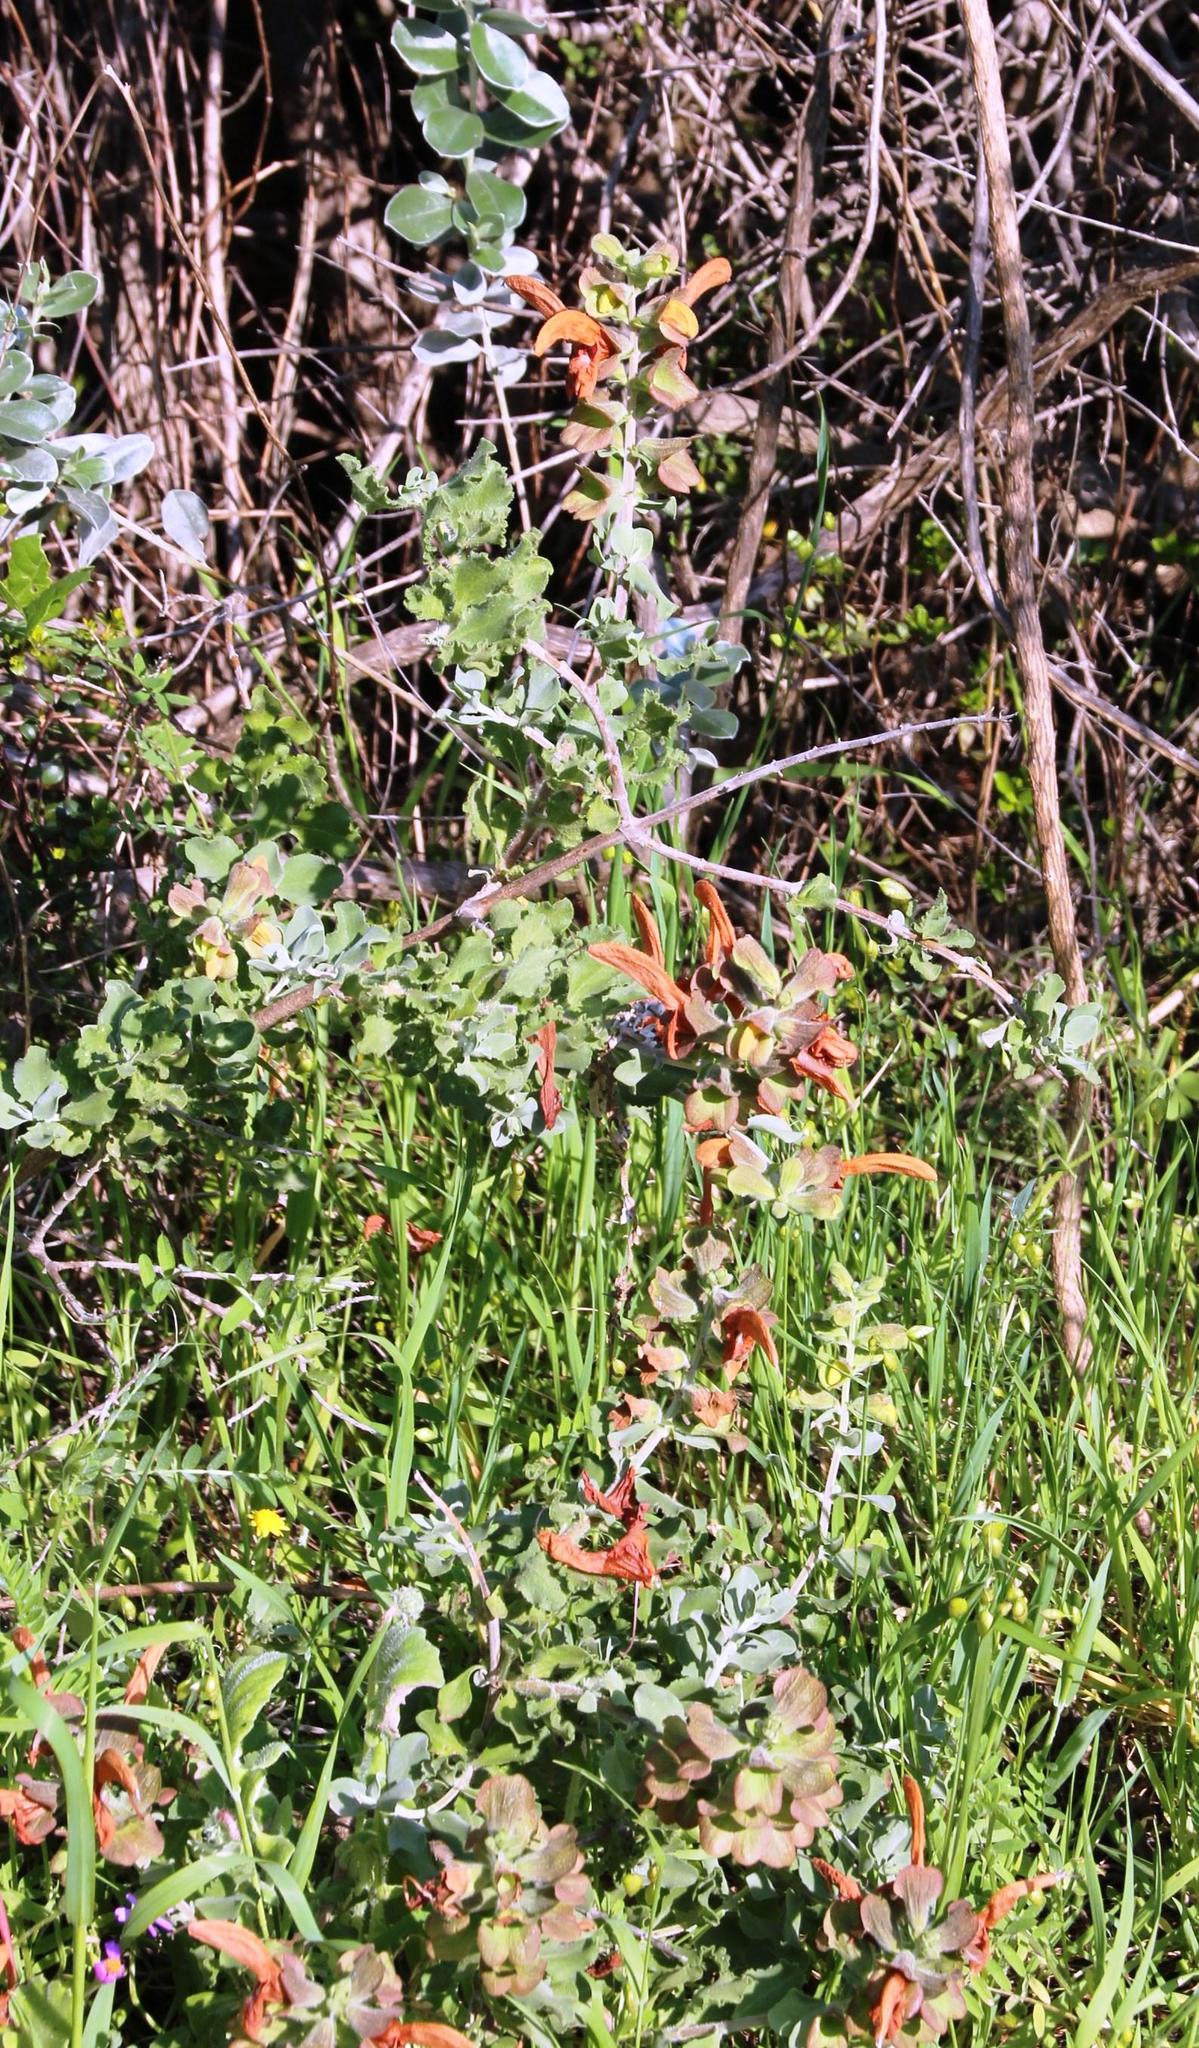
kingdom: Plantae
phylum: Tracheophyta
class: Magnoliopsida
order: Lamiales
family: Lamiaceae
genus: Salvia
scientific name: Salvia aurea
